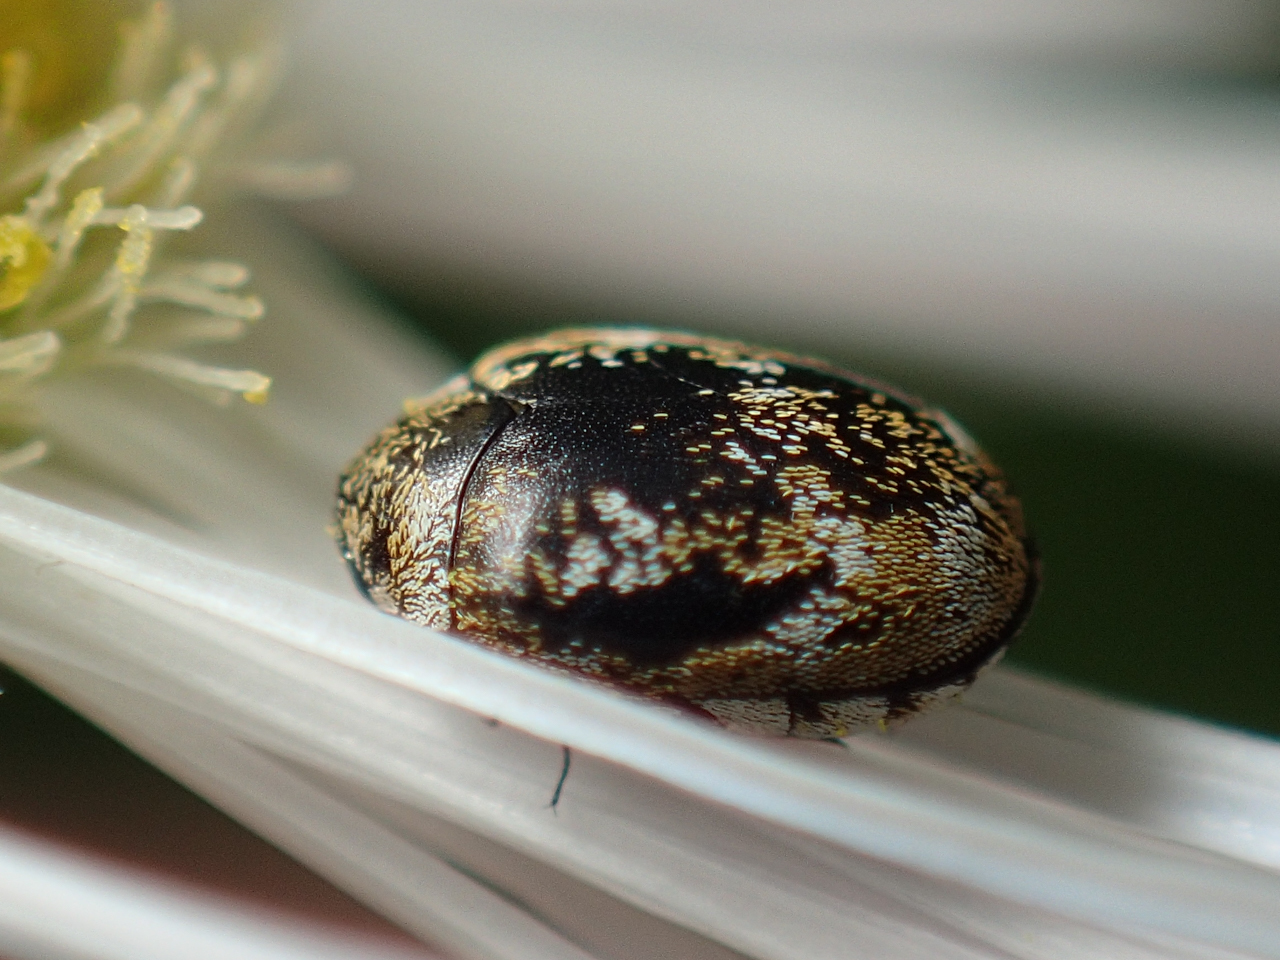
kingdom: Animalia
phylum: Arthropoda
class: Insecta
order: Coleoptera
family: Dermestidae
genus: Anthrenus
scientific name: Anthrenus verbasci
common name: Varied carpet beetle
